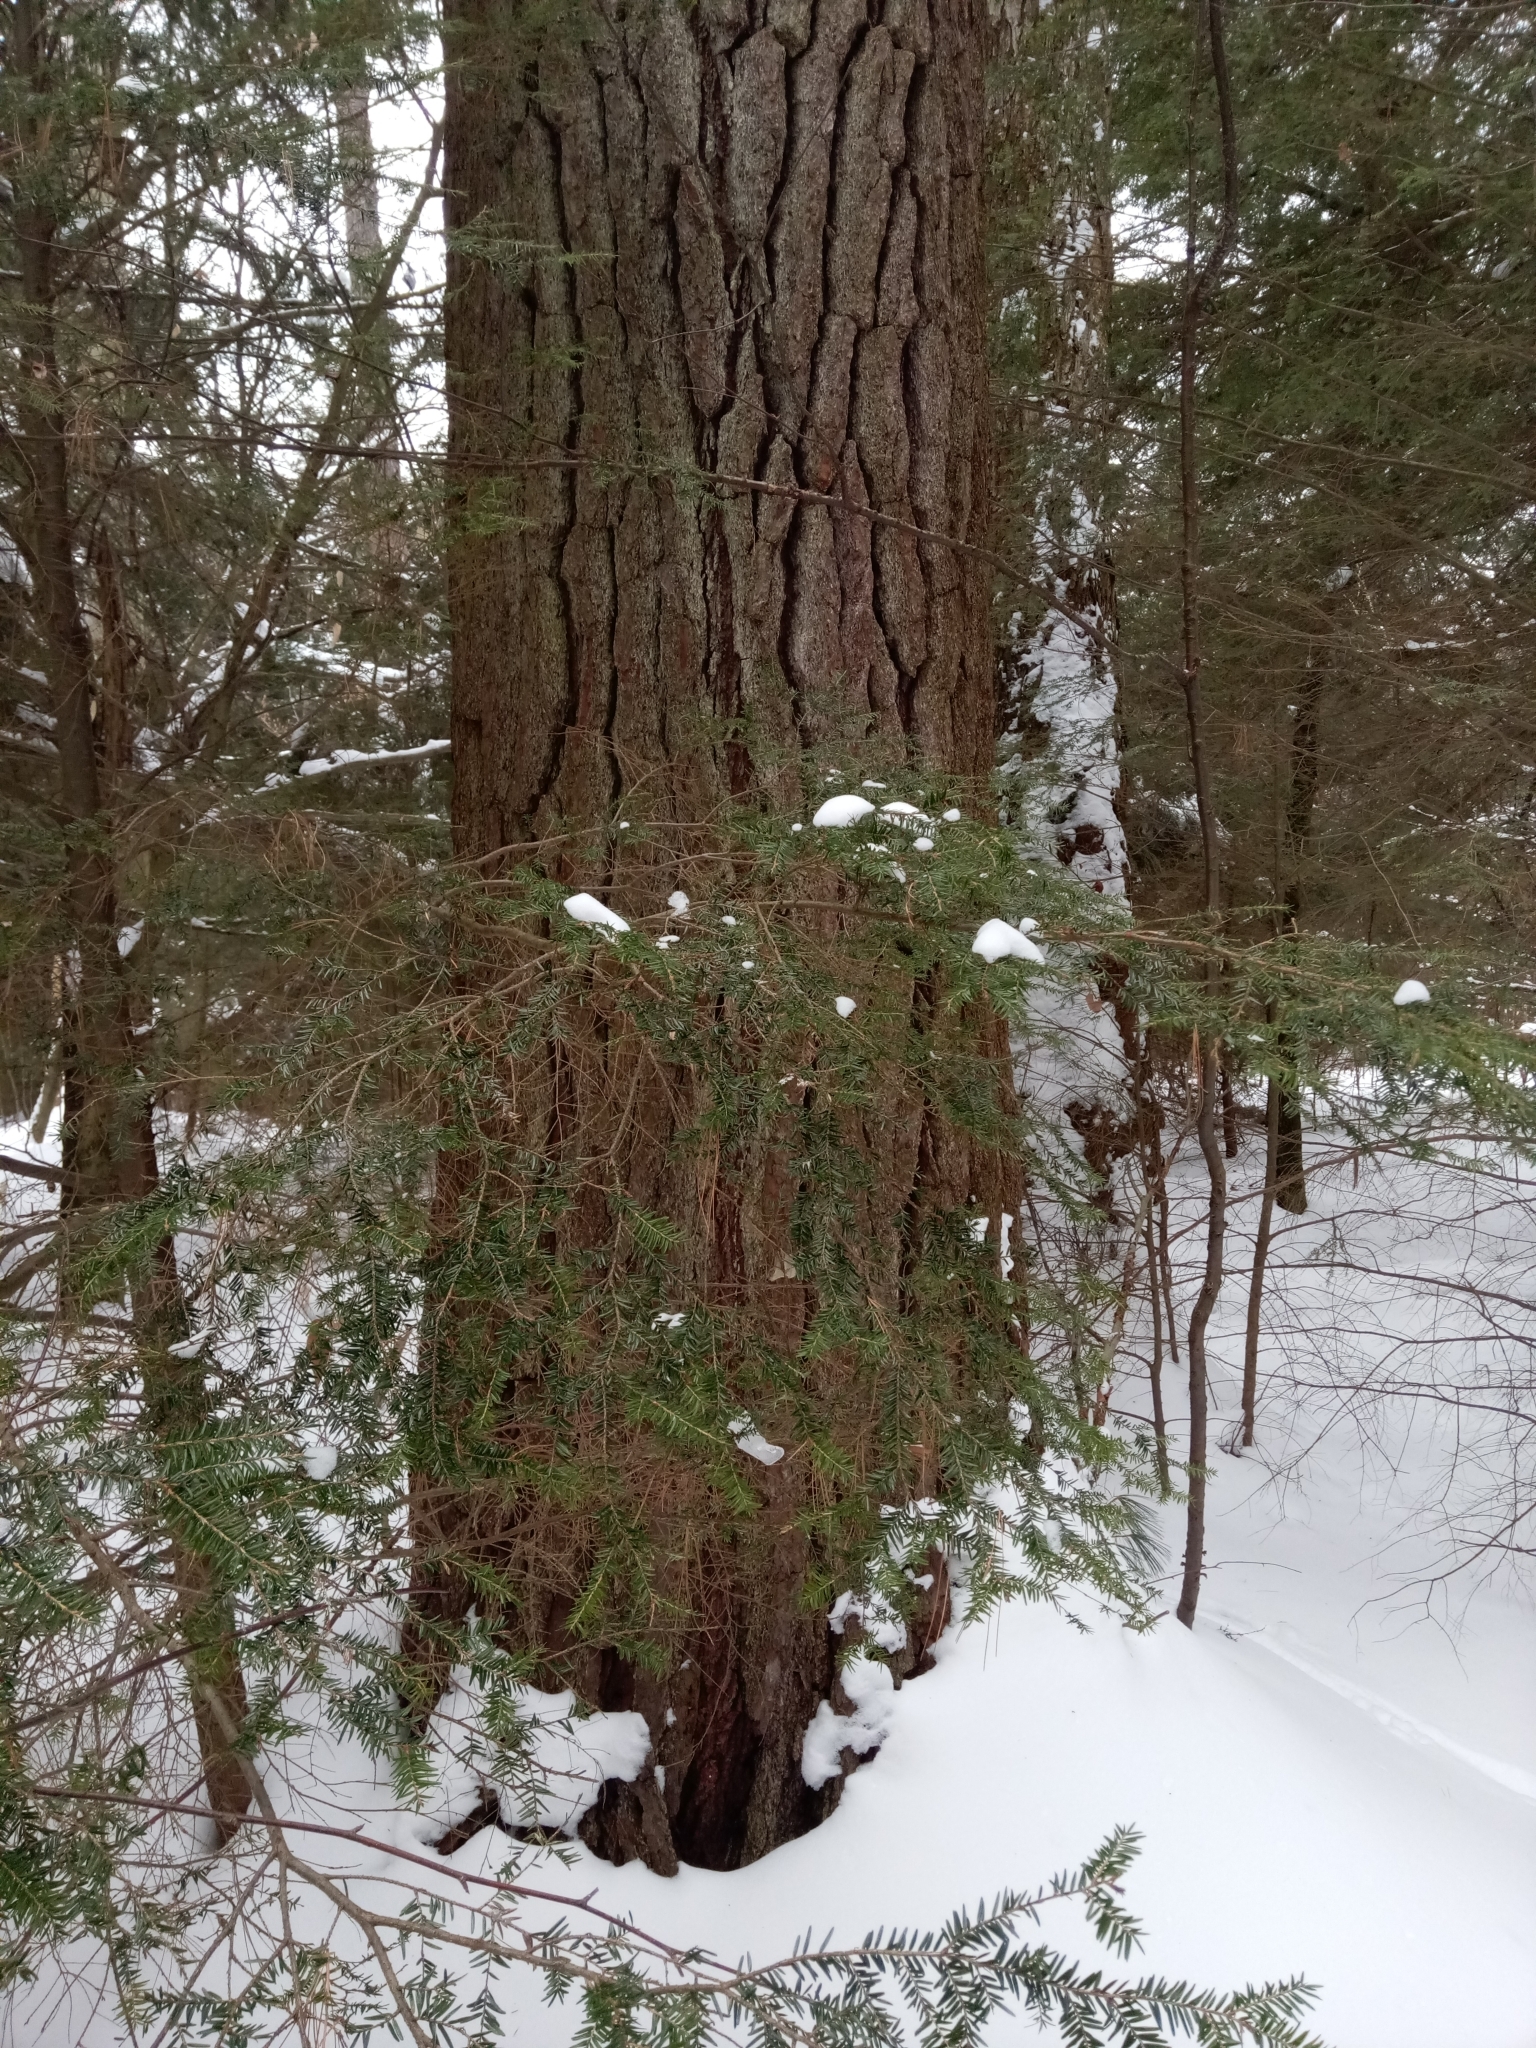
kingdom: Plantae
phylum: Tracheophyta
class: Pinopsida
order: Pinales
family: Pinaceae
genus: Pinus
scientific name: Pinus strobus
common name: Weymouth pine
